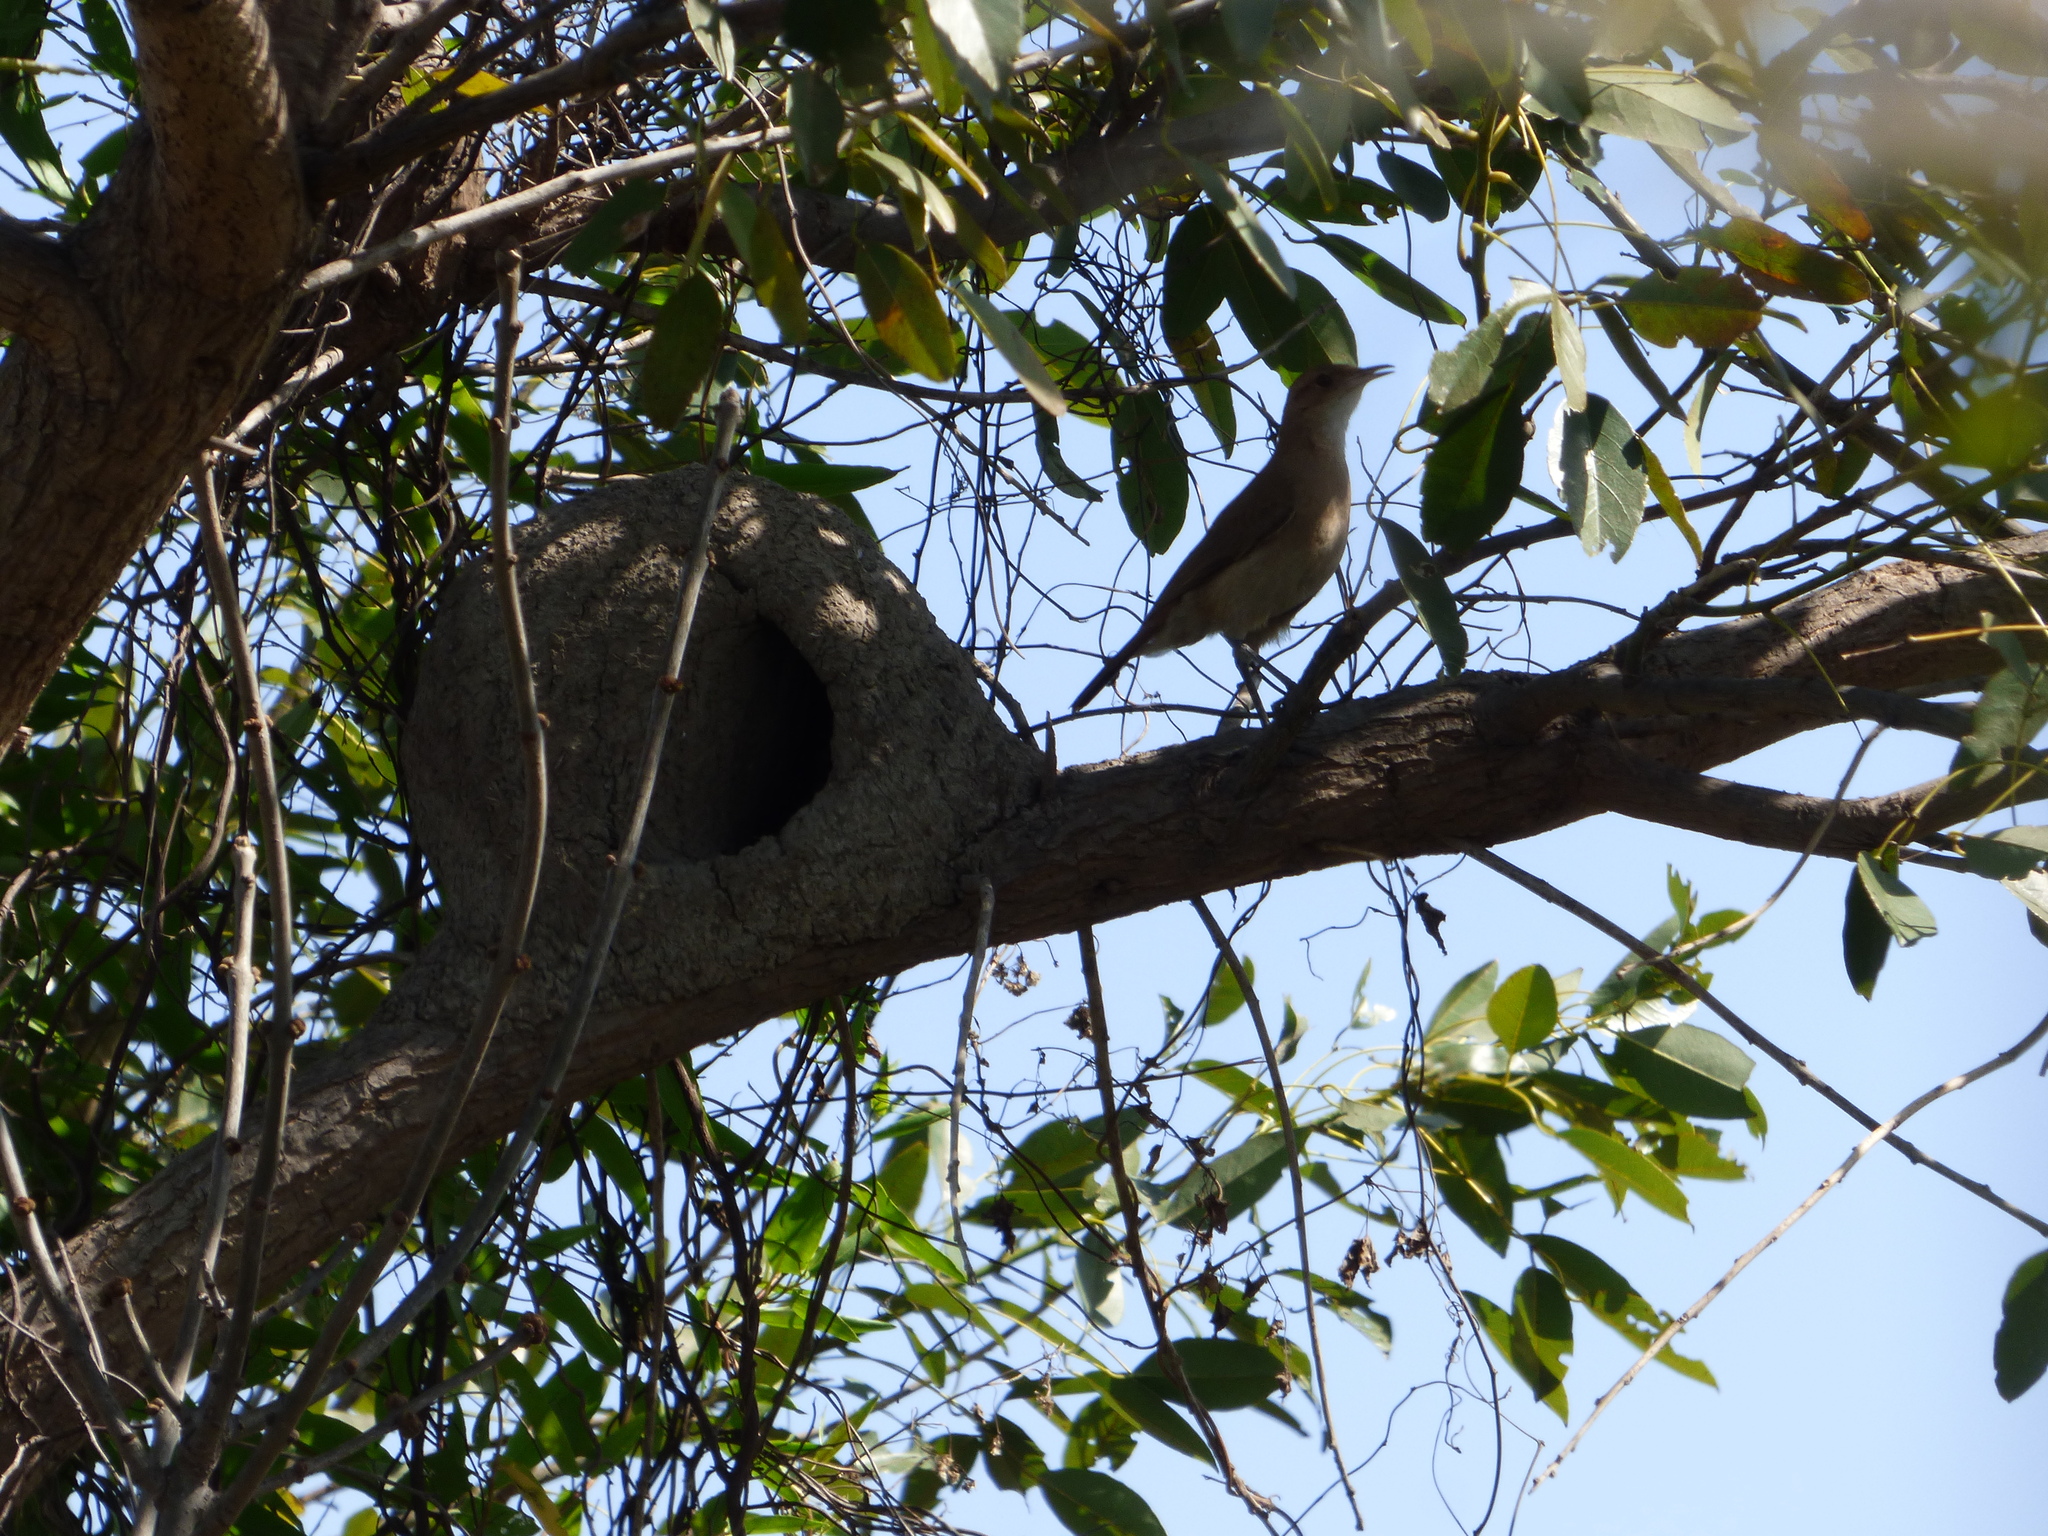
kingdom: Animalia
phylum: Chordata
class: Aves
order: Passeriformes
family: Furnariidae
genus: Furnarius
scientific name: Furnarius rufus
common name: Rufous hornero
